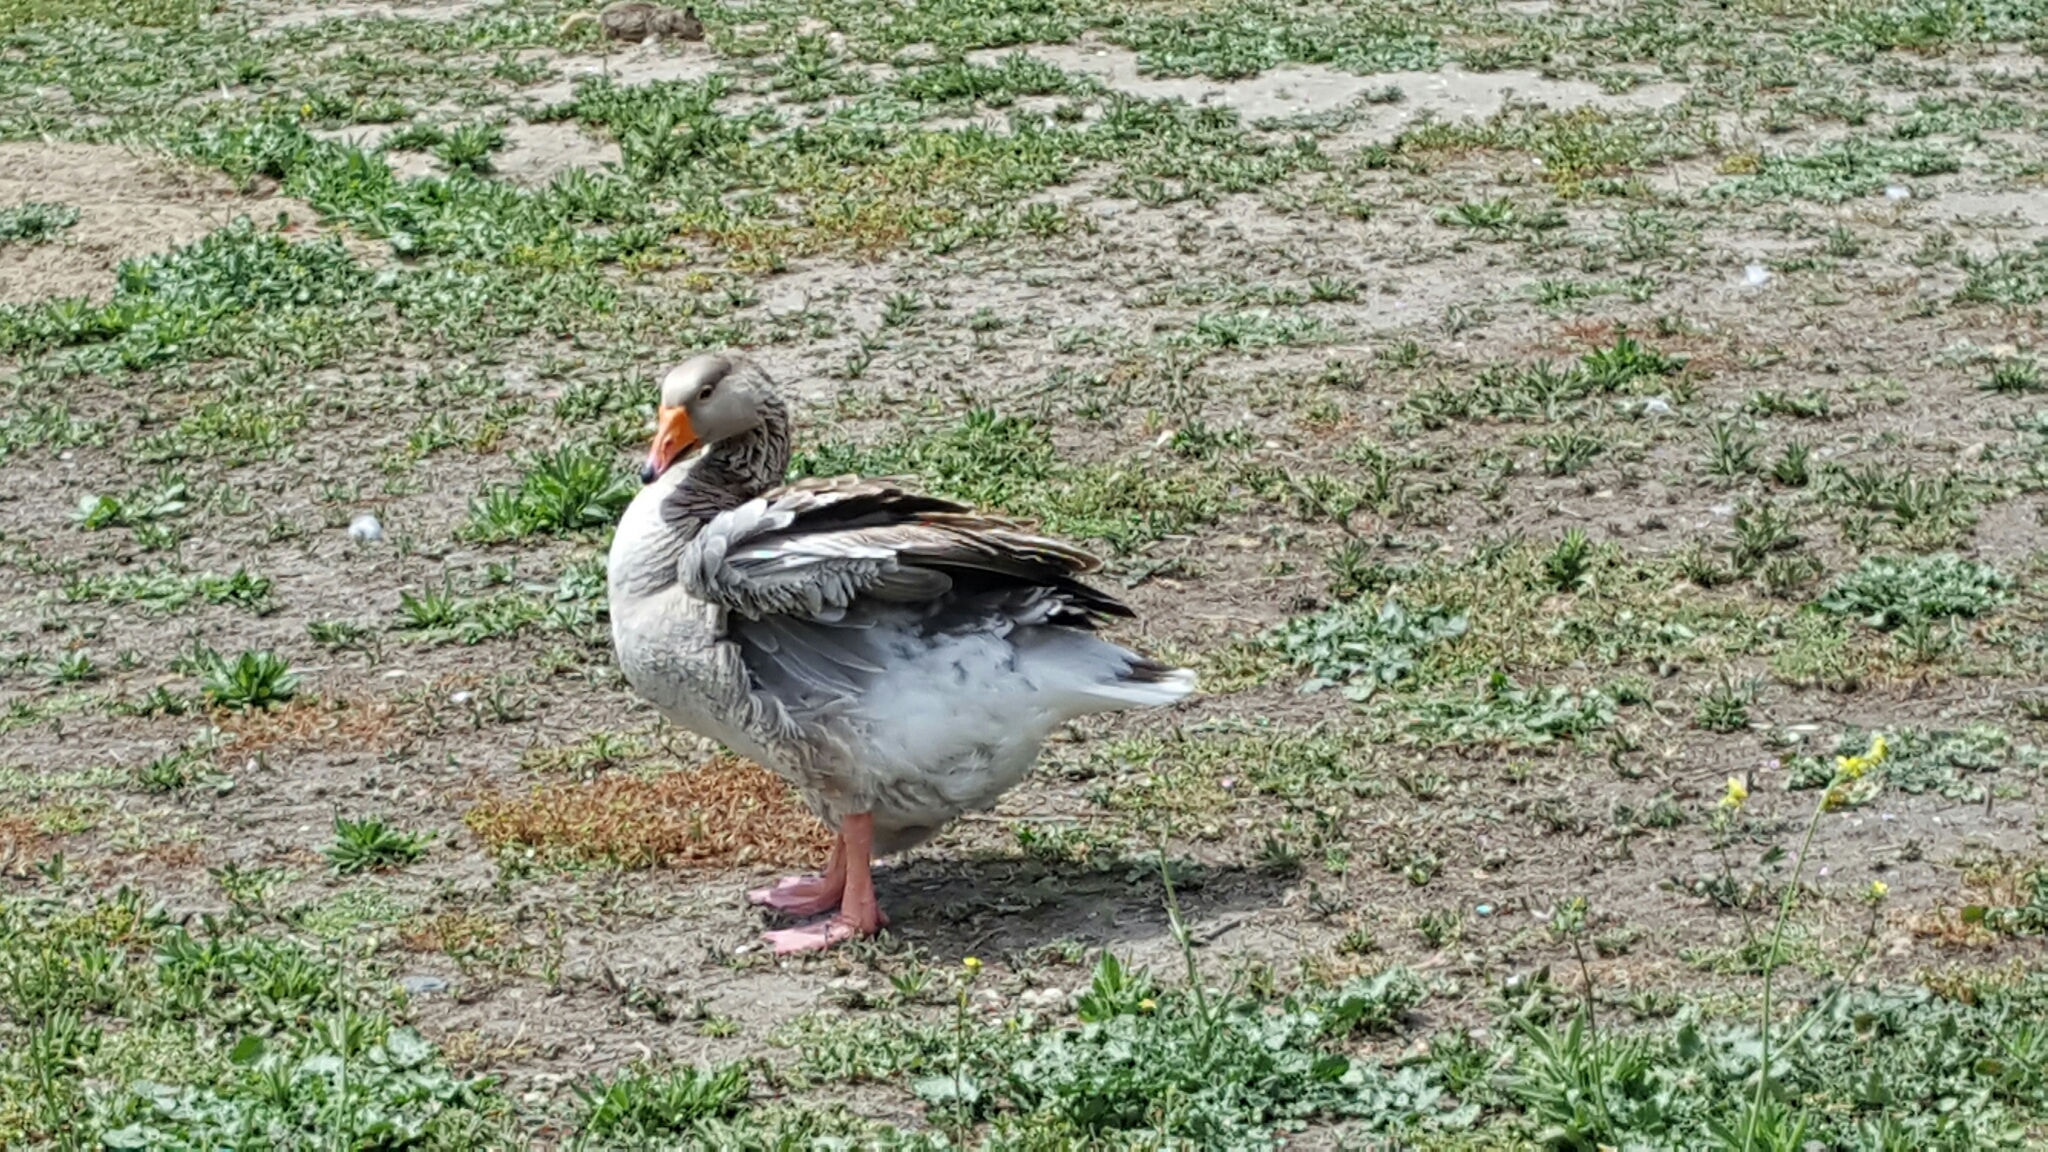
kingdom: Animalia
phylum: Chordata
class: Aves
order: Anseriformes
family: Anatidae
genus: Anser
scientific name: Anser anser
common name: Greylag goose
